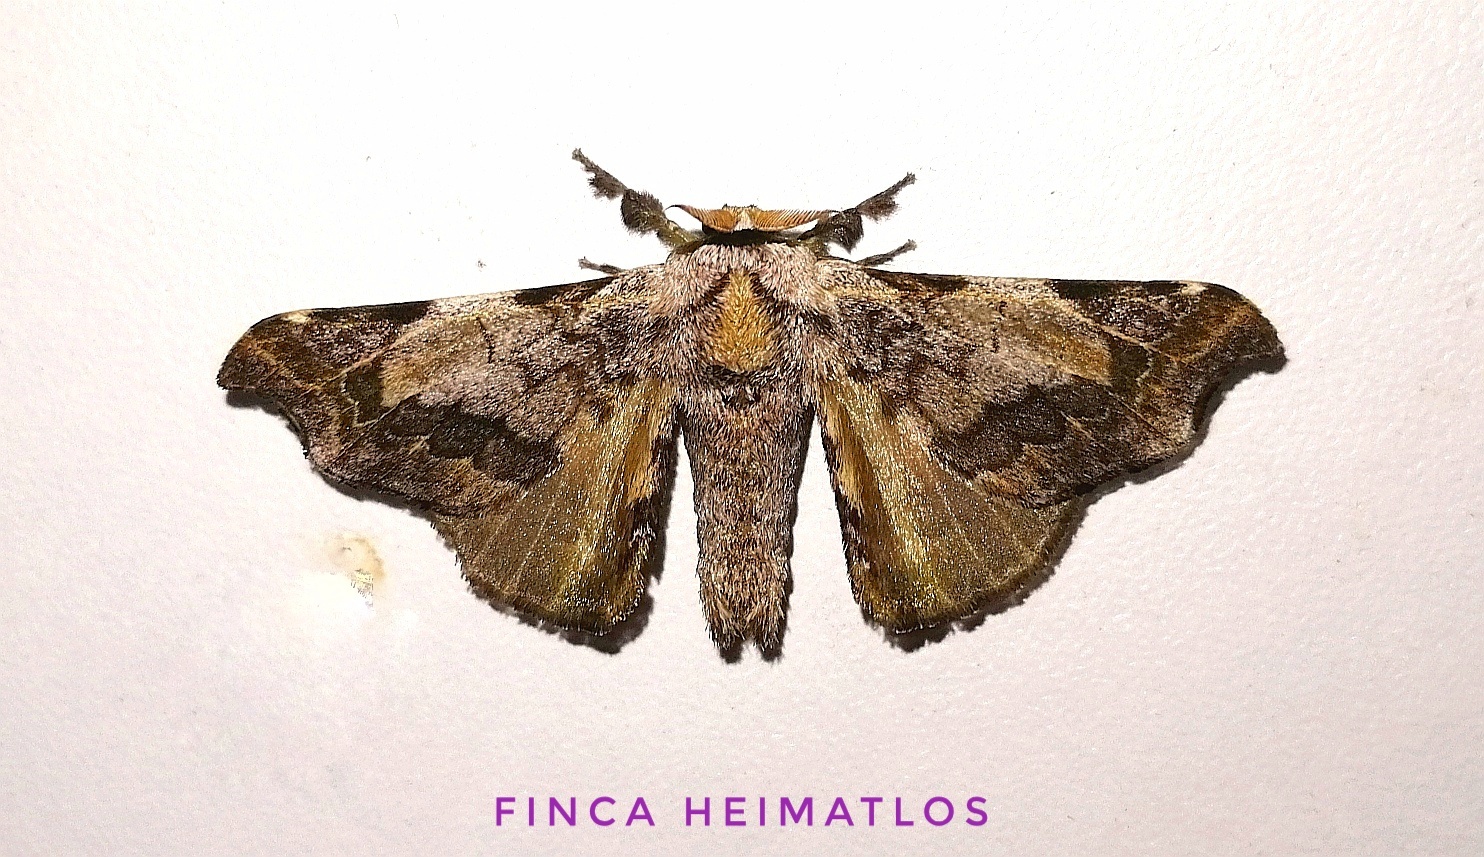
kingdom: Animalia
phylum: Arthropoda
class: Insecta
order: Lepidoptera
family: Bombycidae
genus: Quentalia
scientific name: Quentalia ephonia
